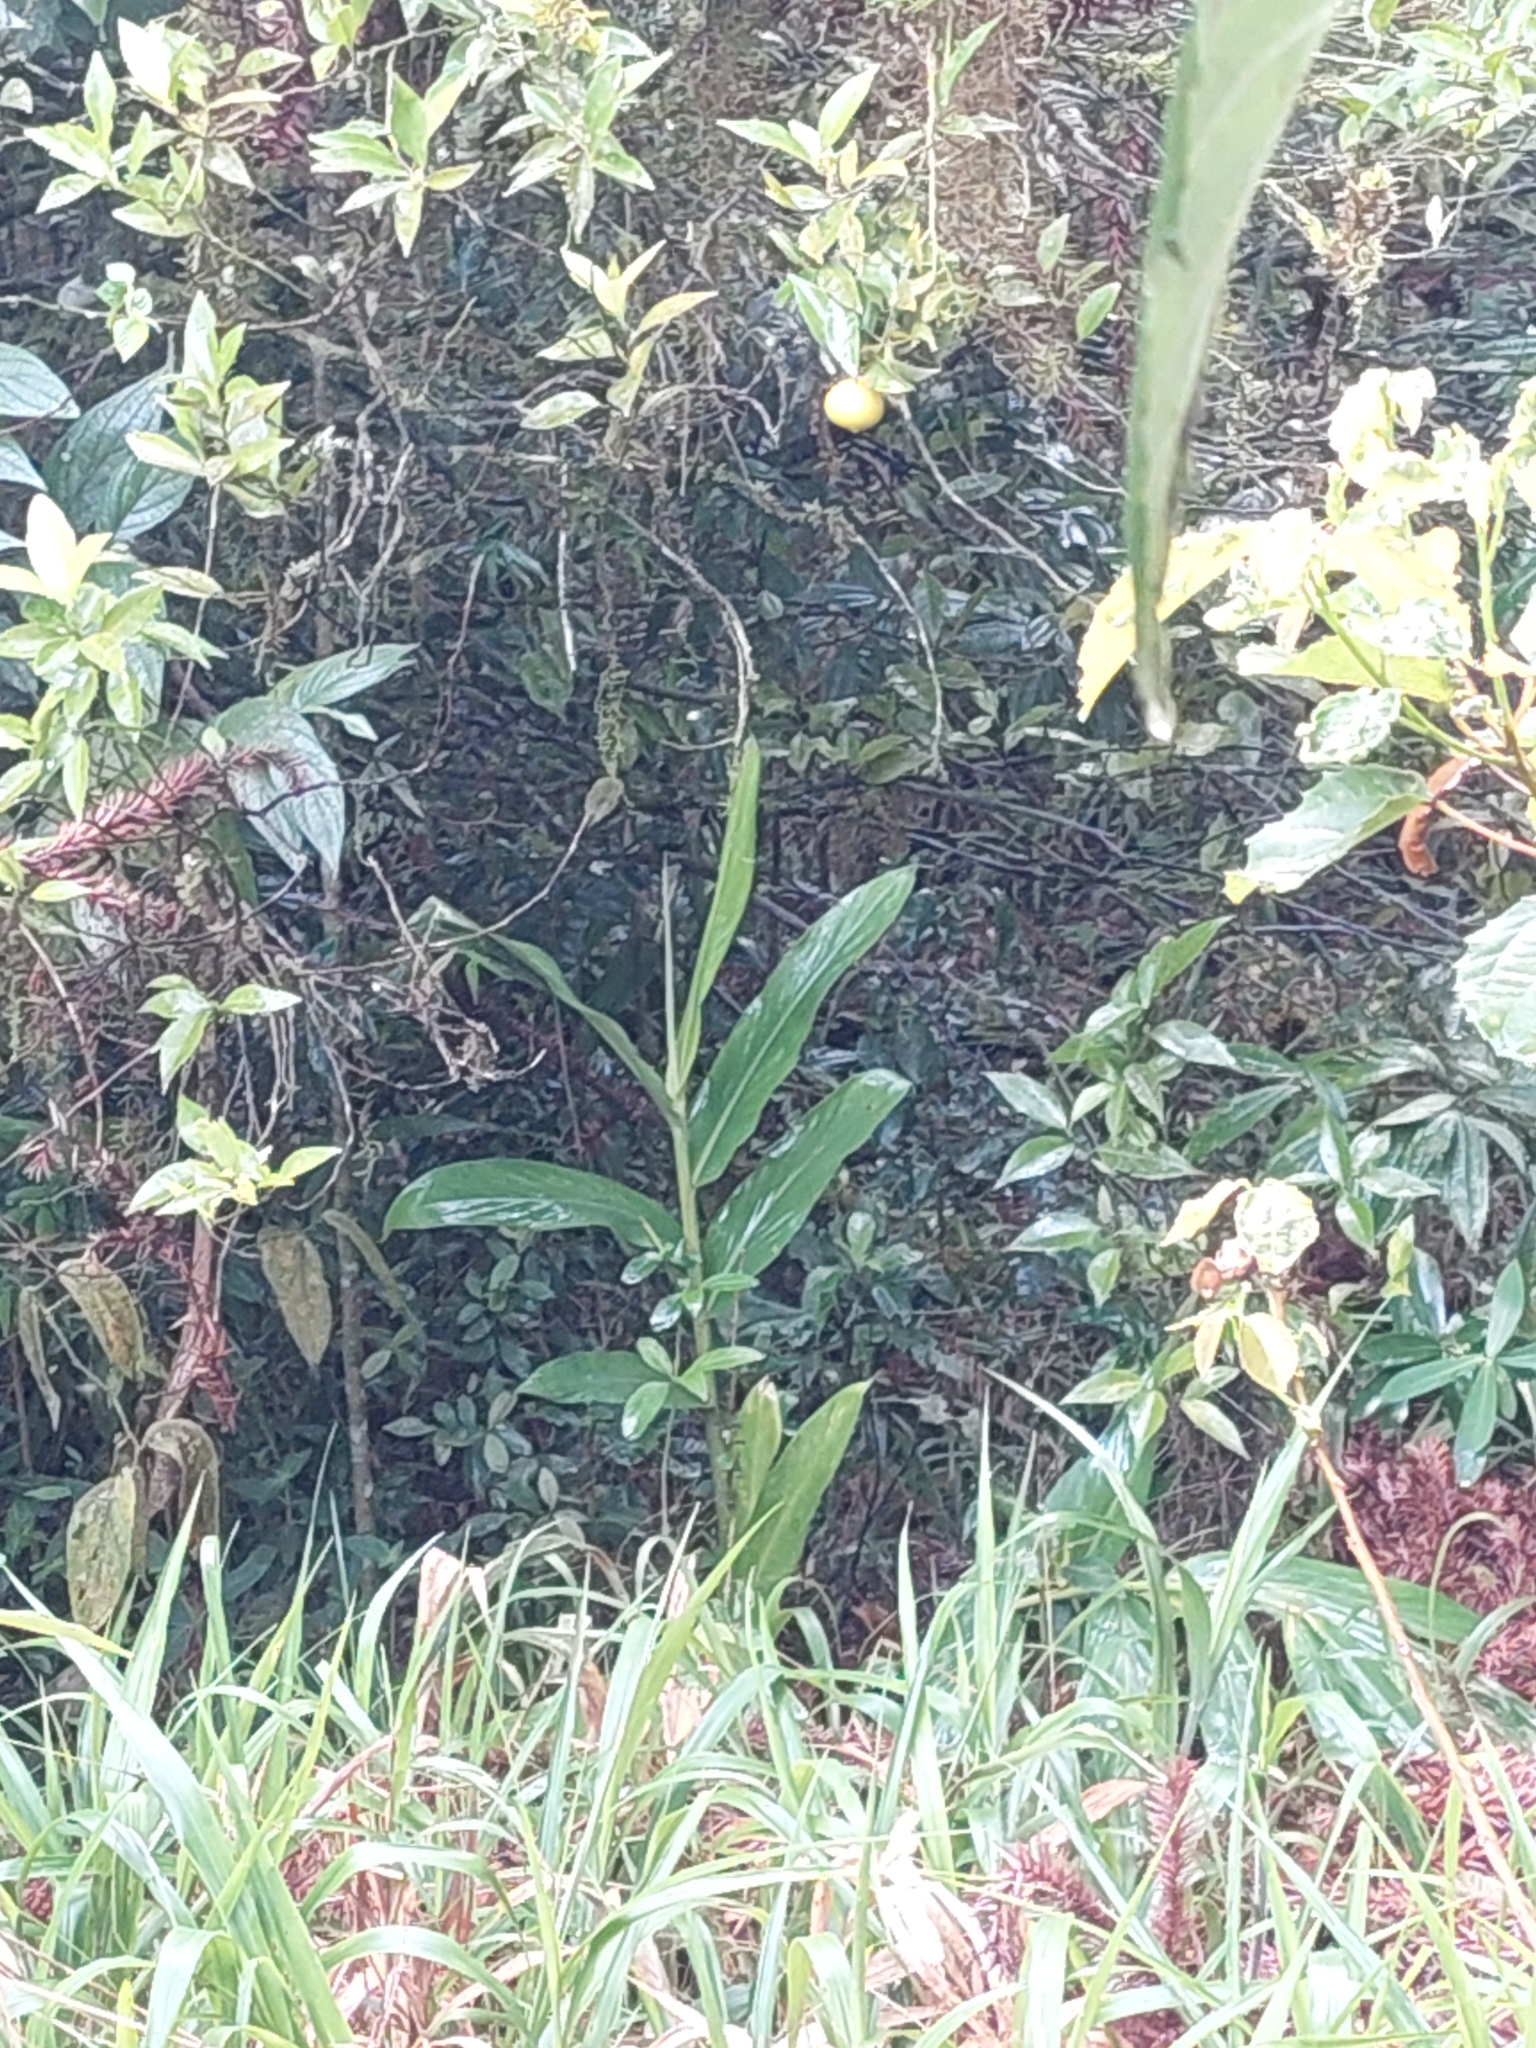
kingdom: Plantae
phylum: Tracheophyta
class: Liliopsida
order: Zingiberales
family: Zingiberaceae
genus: Hedychium
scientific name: Hedychium coronarium
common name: White garland-lily
